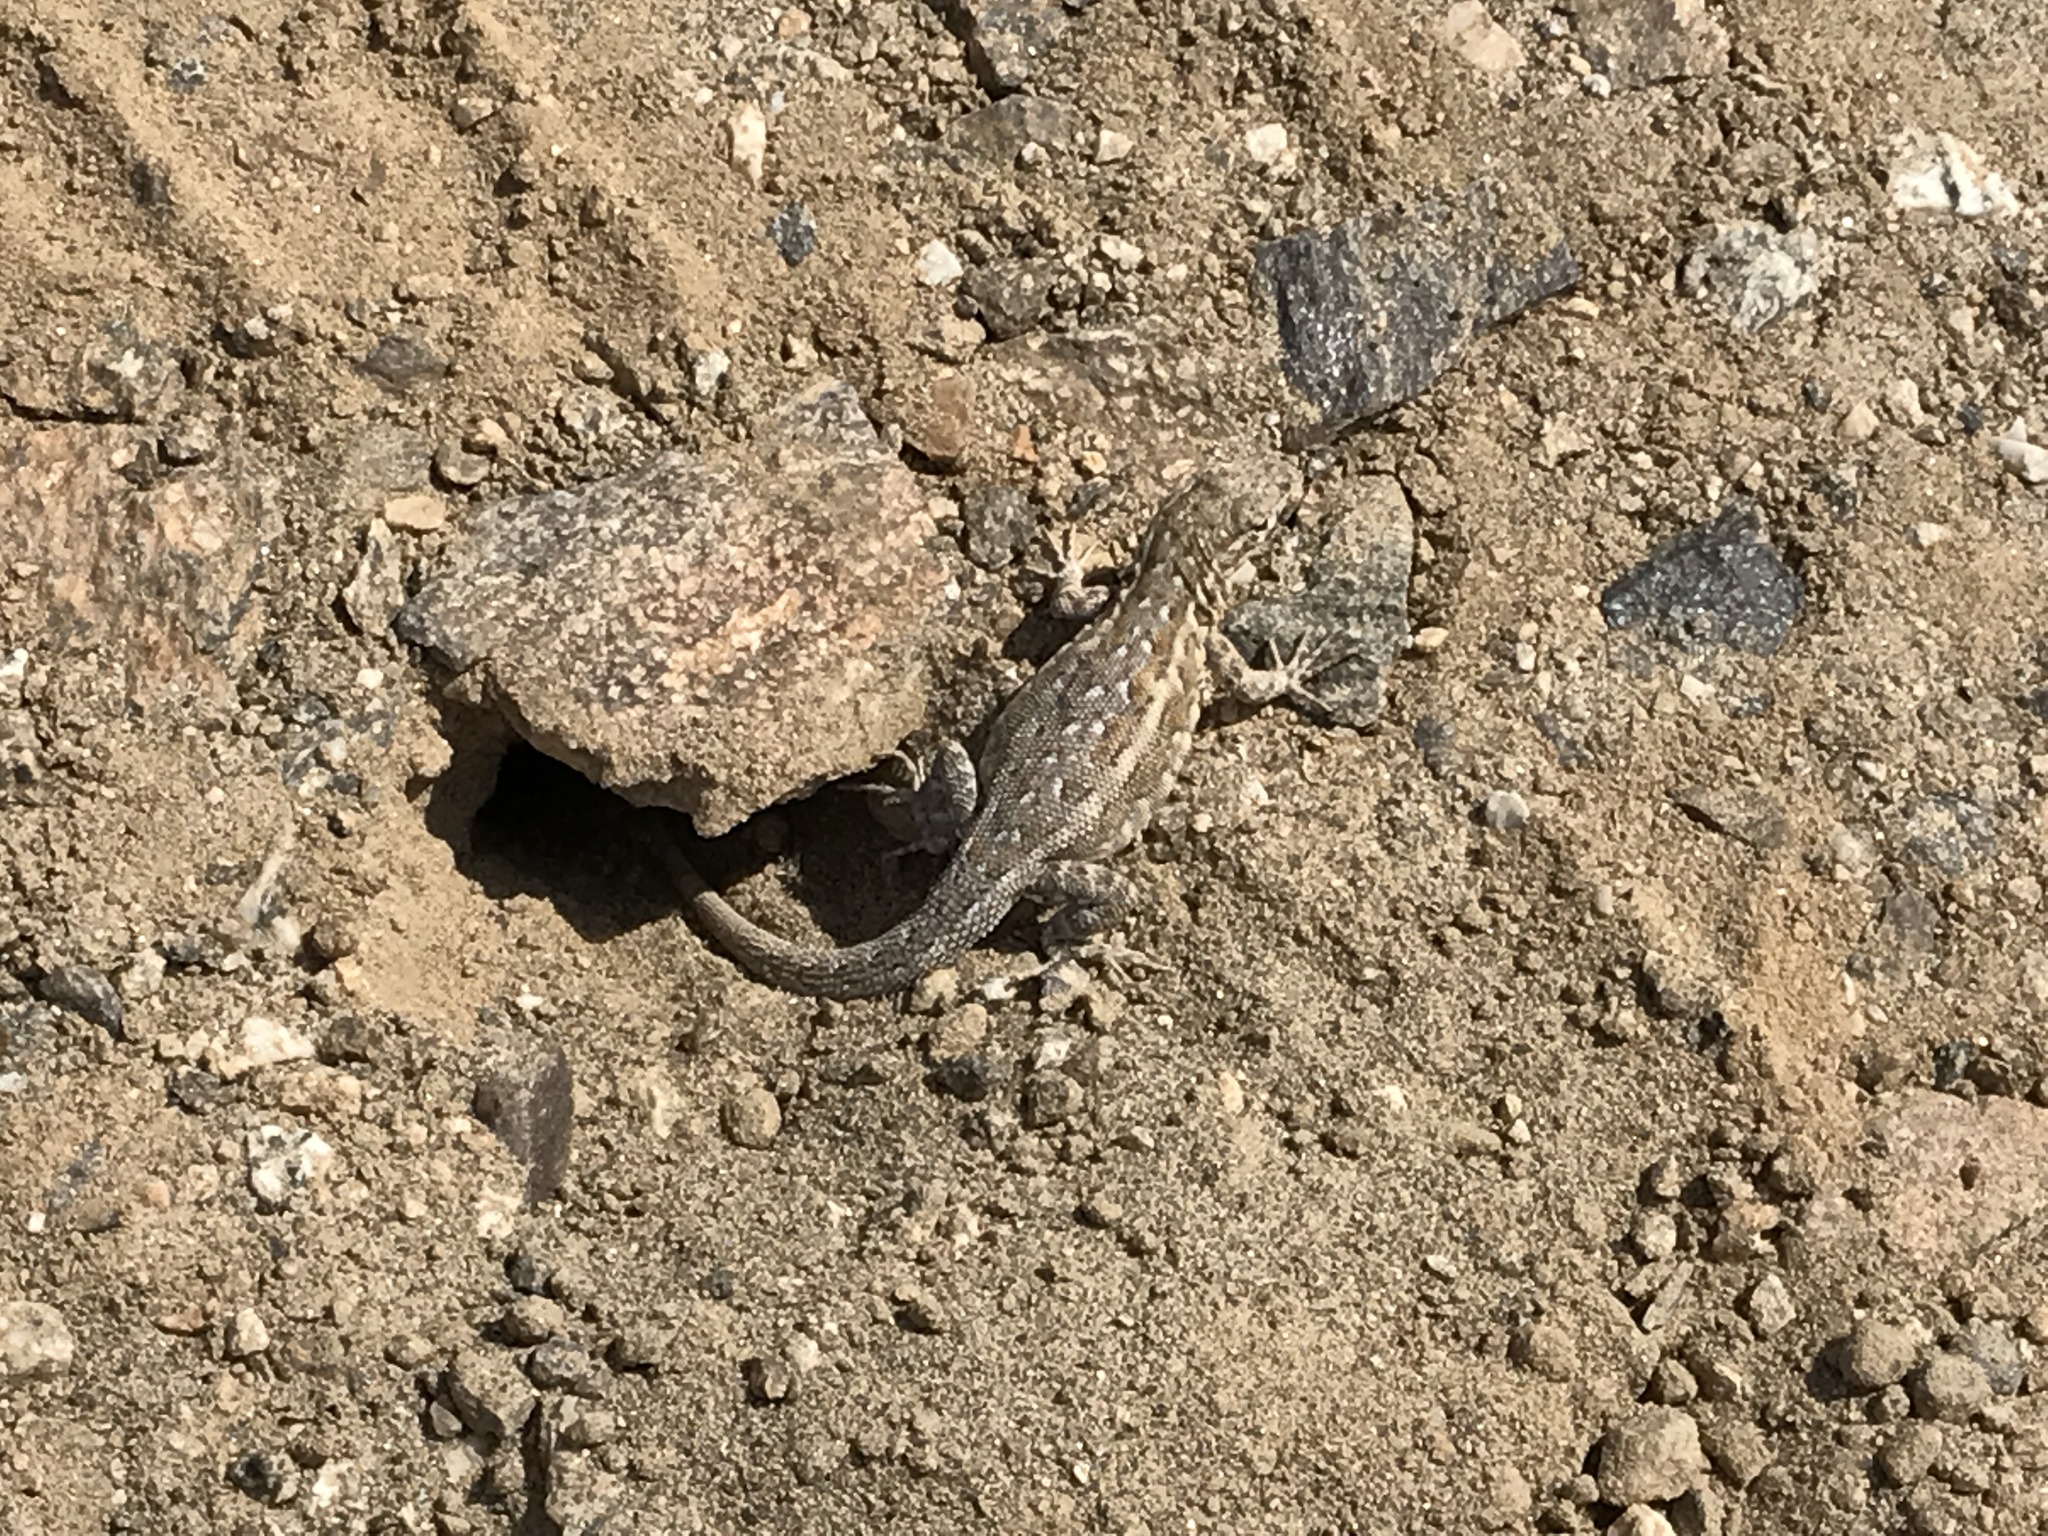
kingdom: Animalia
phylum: Chordata
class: Squamata
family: Phrynosomatidae
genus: Uta
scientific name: Uta stansburiana
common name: Side-blotched lizard
